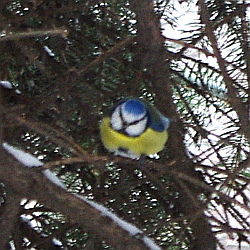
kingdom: Animalia
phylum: Chordata
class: Aves
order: Passeriformes
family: Paridae
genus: Cyanistes
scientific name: Cyanistes caeruleus
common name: Eurasian blue tit
